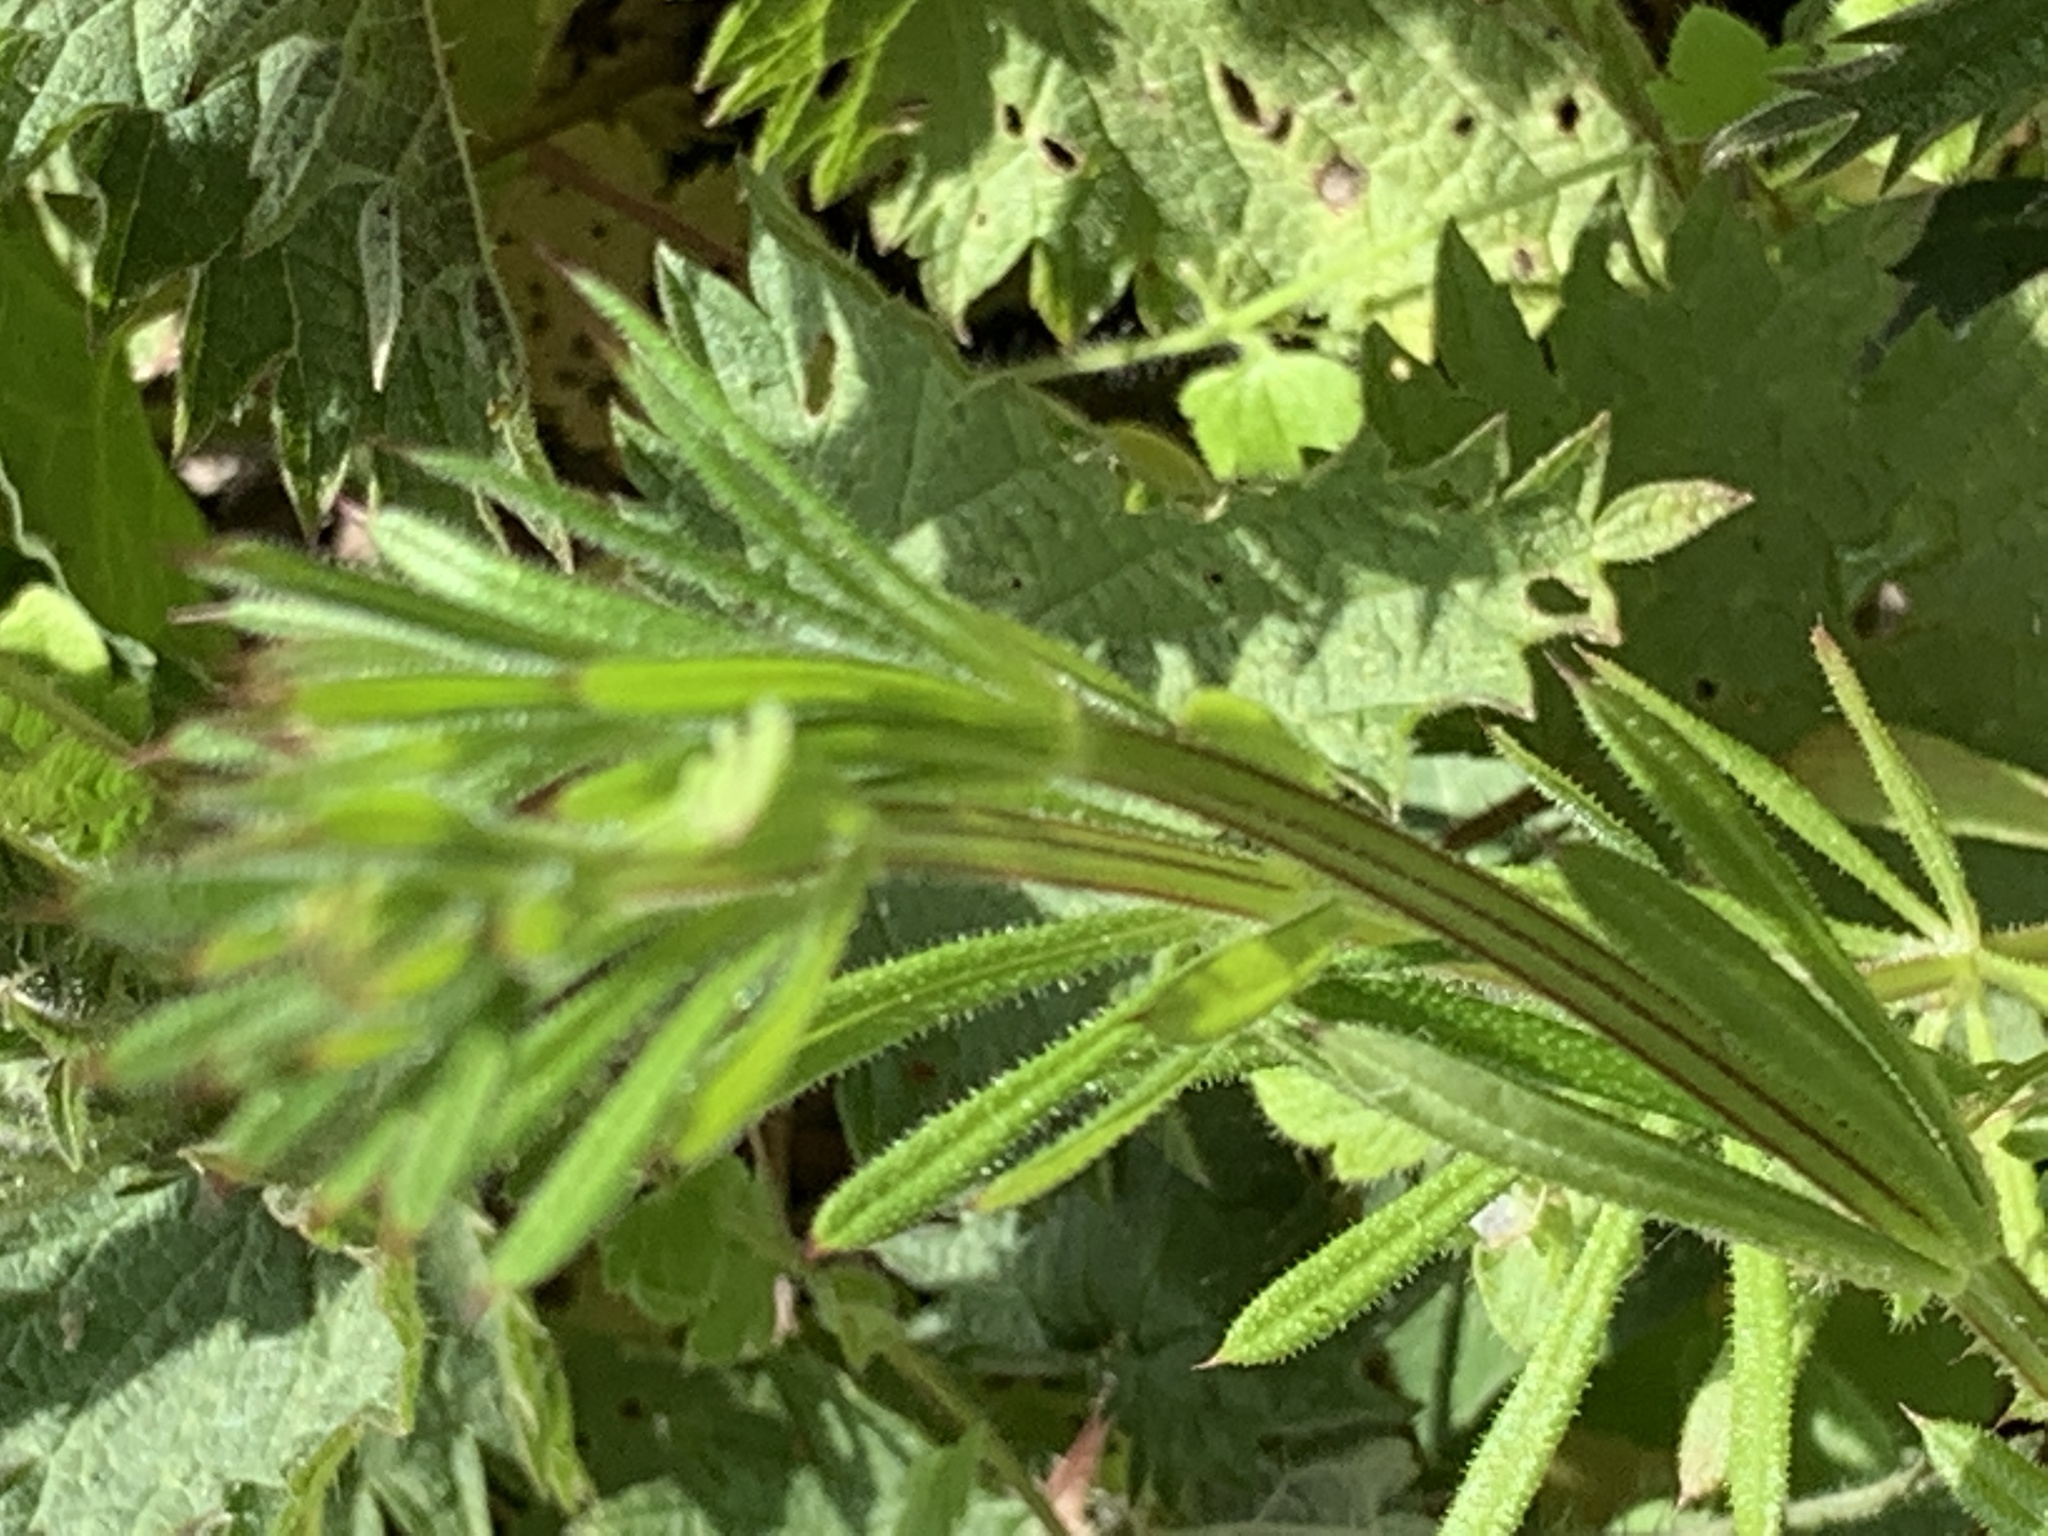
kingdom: Plantae
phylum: Tracheophyta
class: Magnoliopsida
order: Gentianales
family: Rubiaceae
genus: Galium
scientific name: Galium aparine
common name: Cleavers
